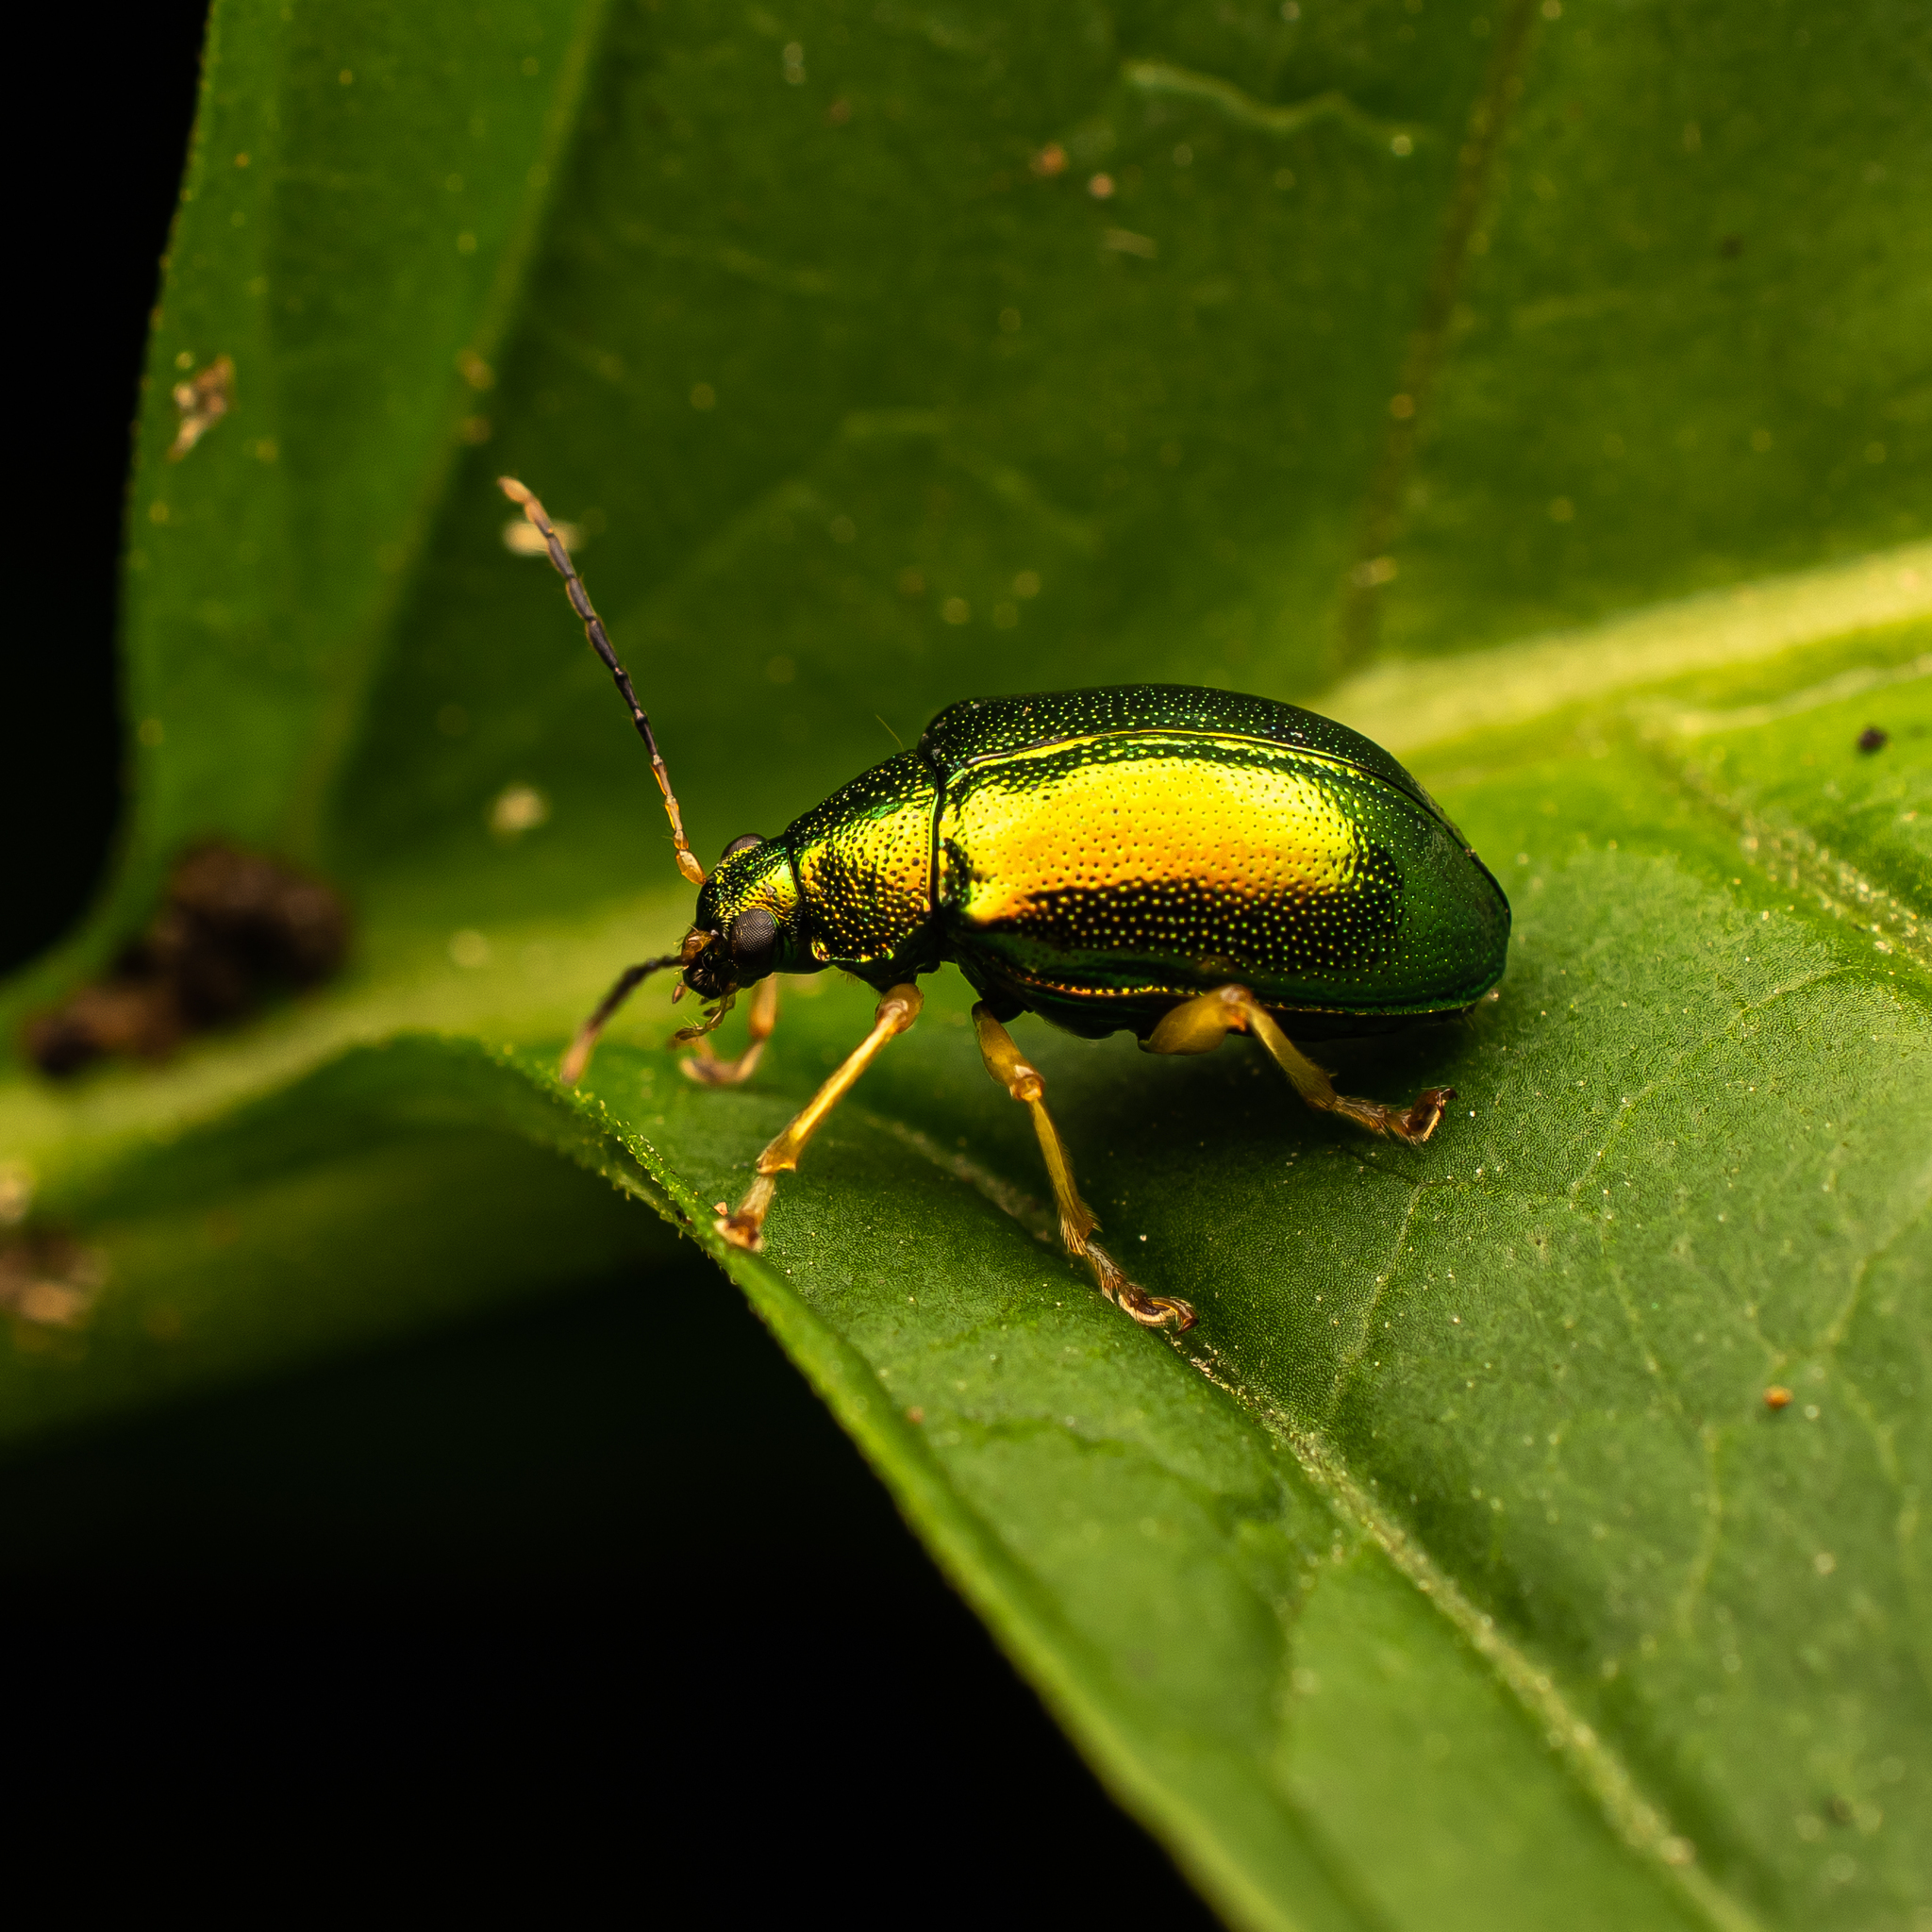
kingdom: Animalia
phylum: Arthropoda
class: Insecta
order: Coleoptera
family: Chrysomelidae
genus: Colaspis
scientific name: Colaspis
